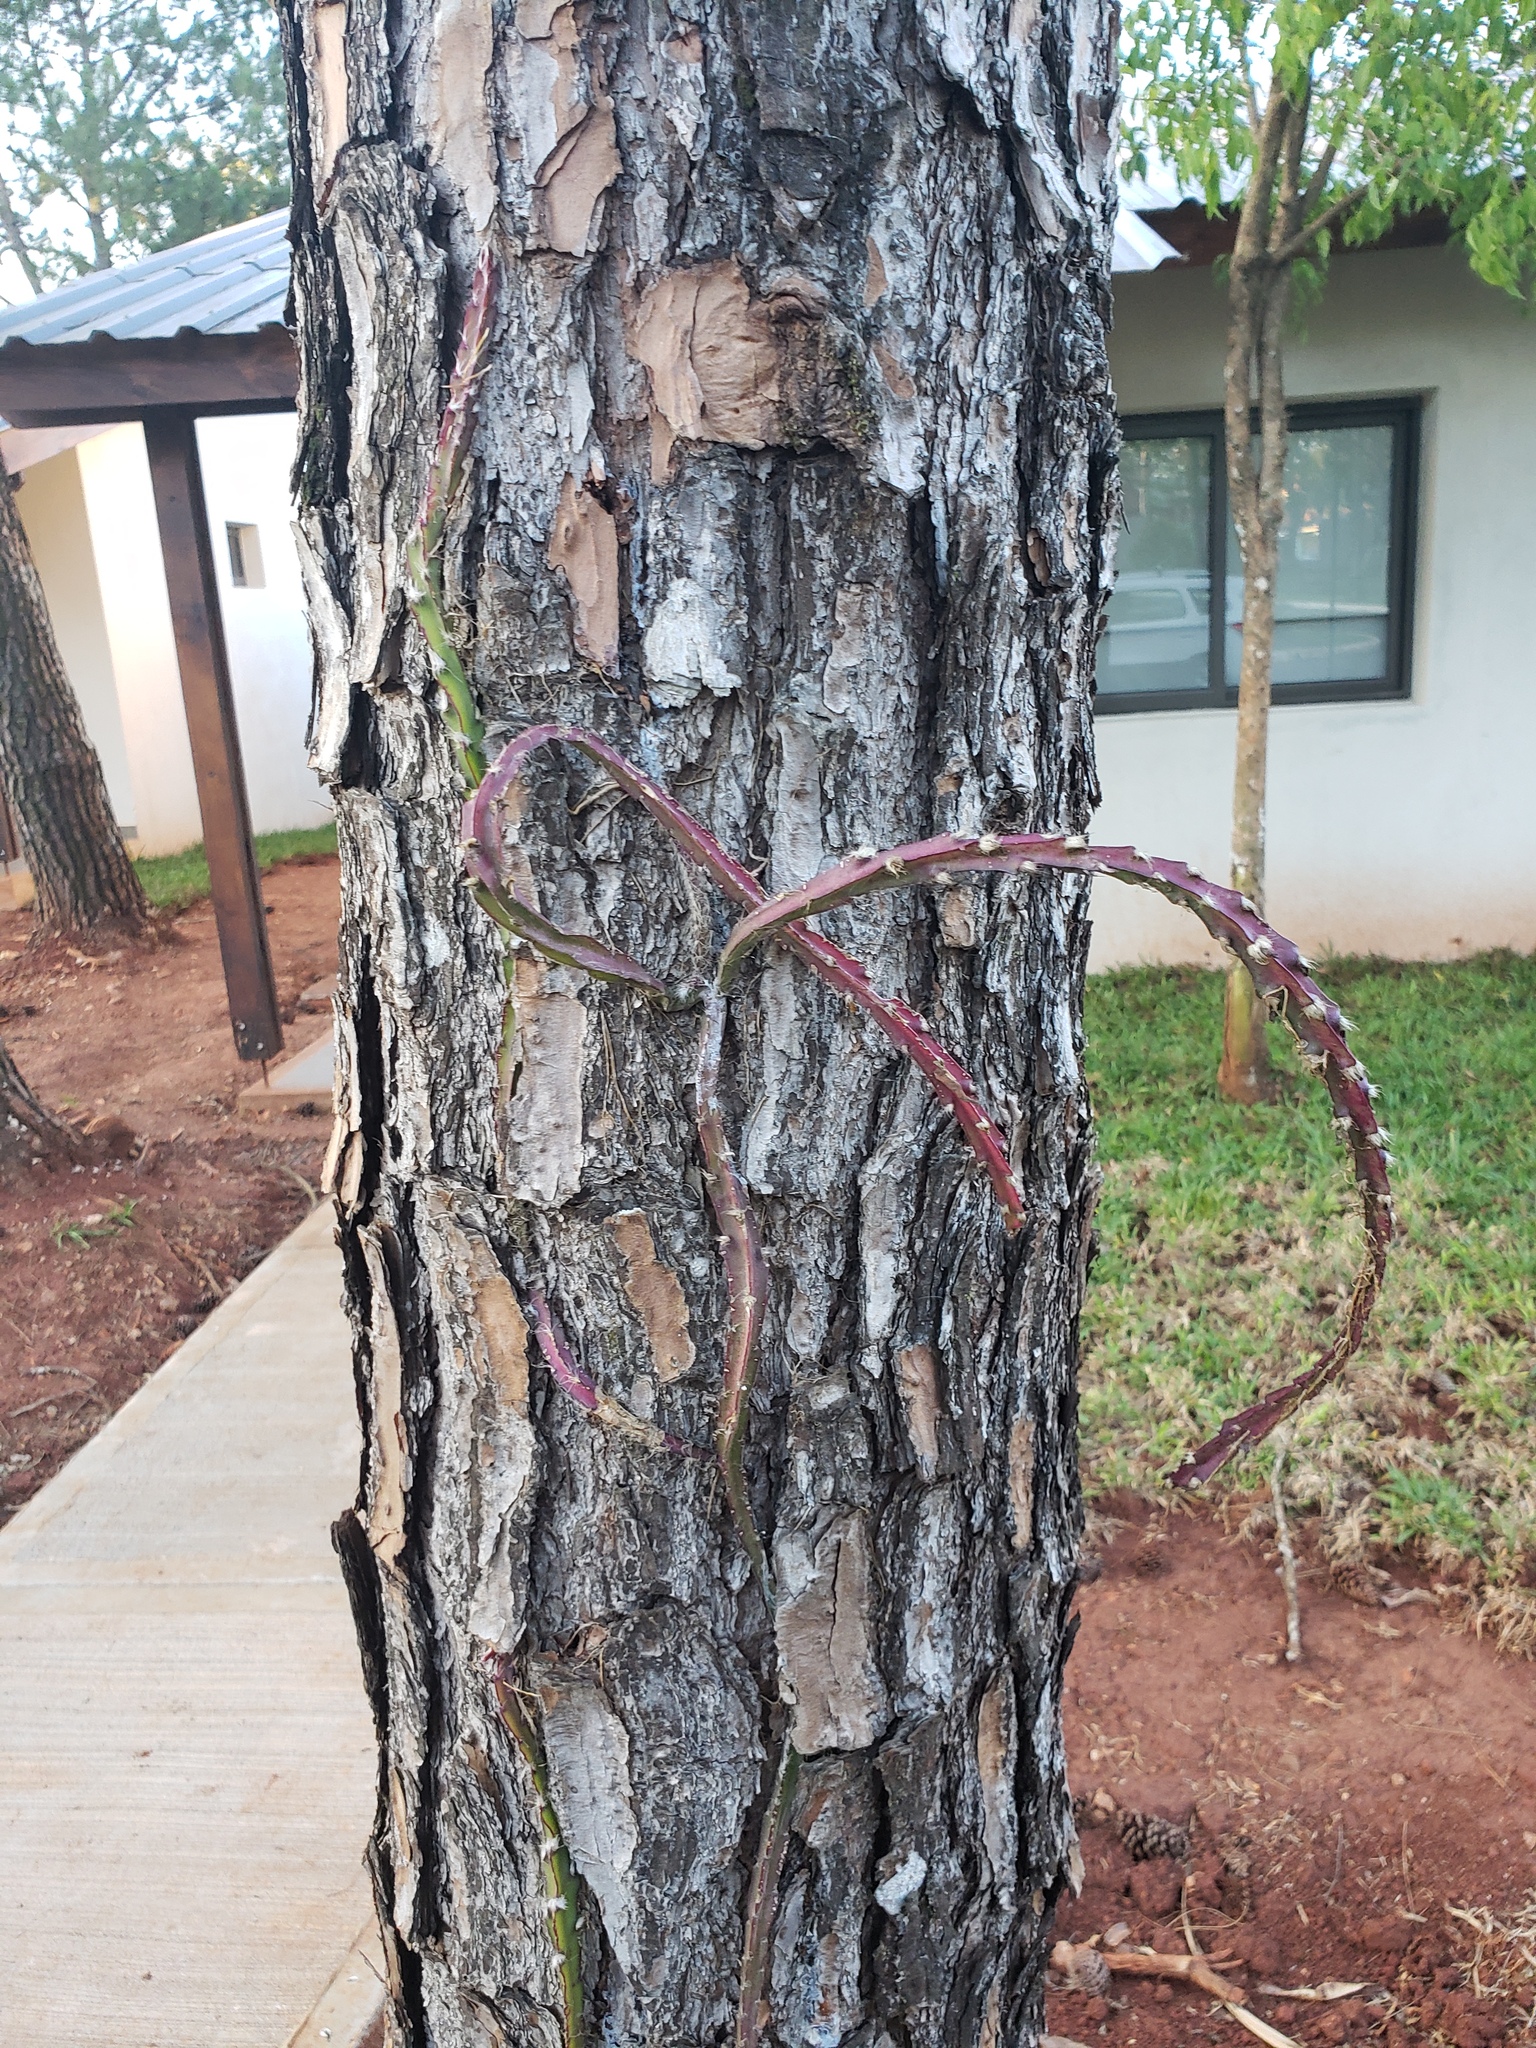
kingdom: Plantae
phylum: Tracheophyta
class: Magnoliopsida
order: Caryophyllales
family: Cactaceae
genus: Lepismium
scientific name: Lepismium cruciforme
